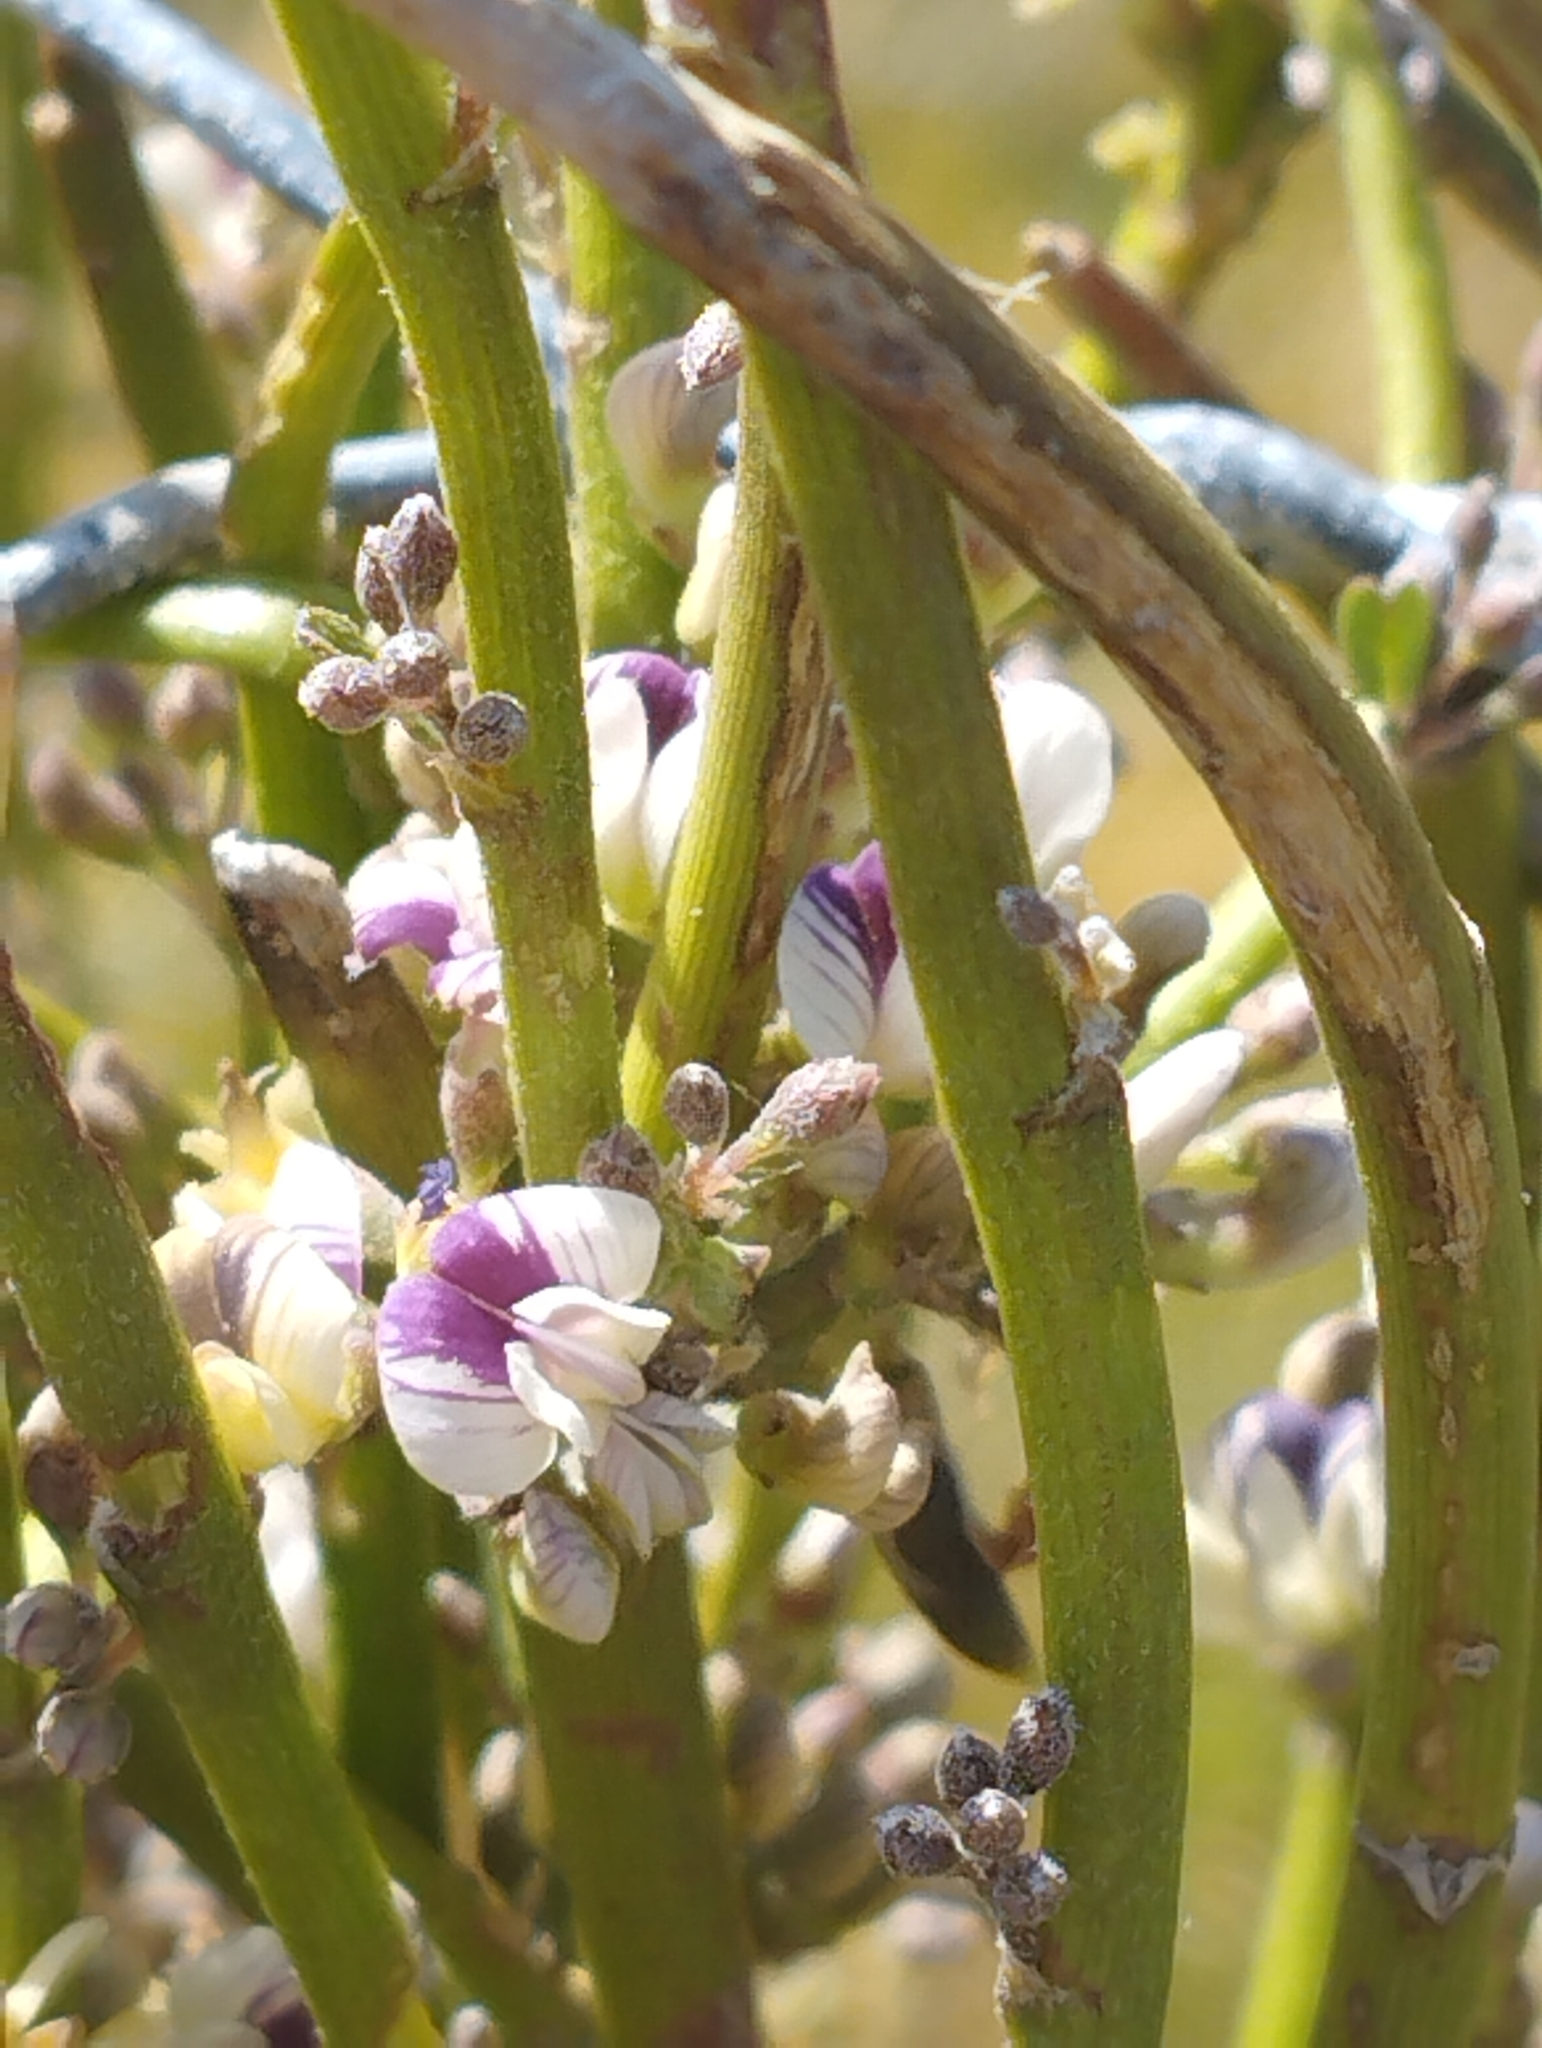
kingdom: Plantae
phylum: Tracheophyta
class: Magnoliopsida
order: Fabales
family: Fabaceae
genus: Carmichaelia
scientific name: Carmichaelia australis
